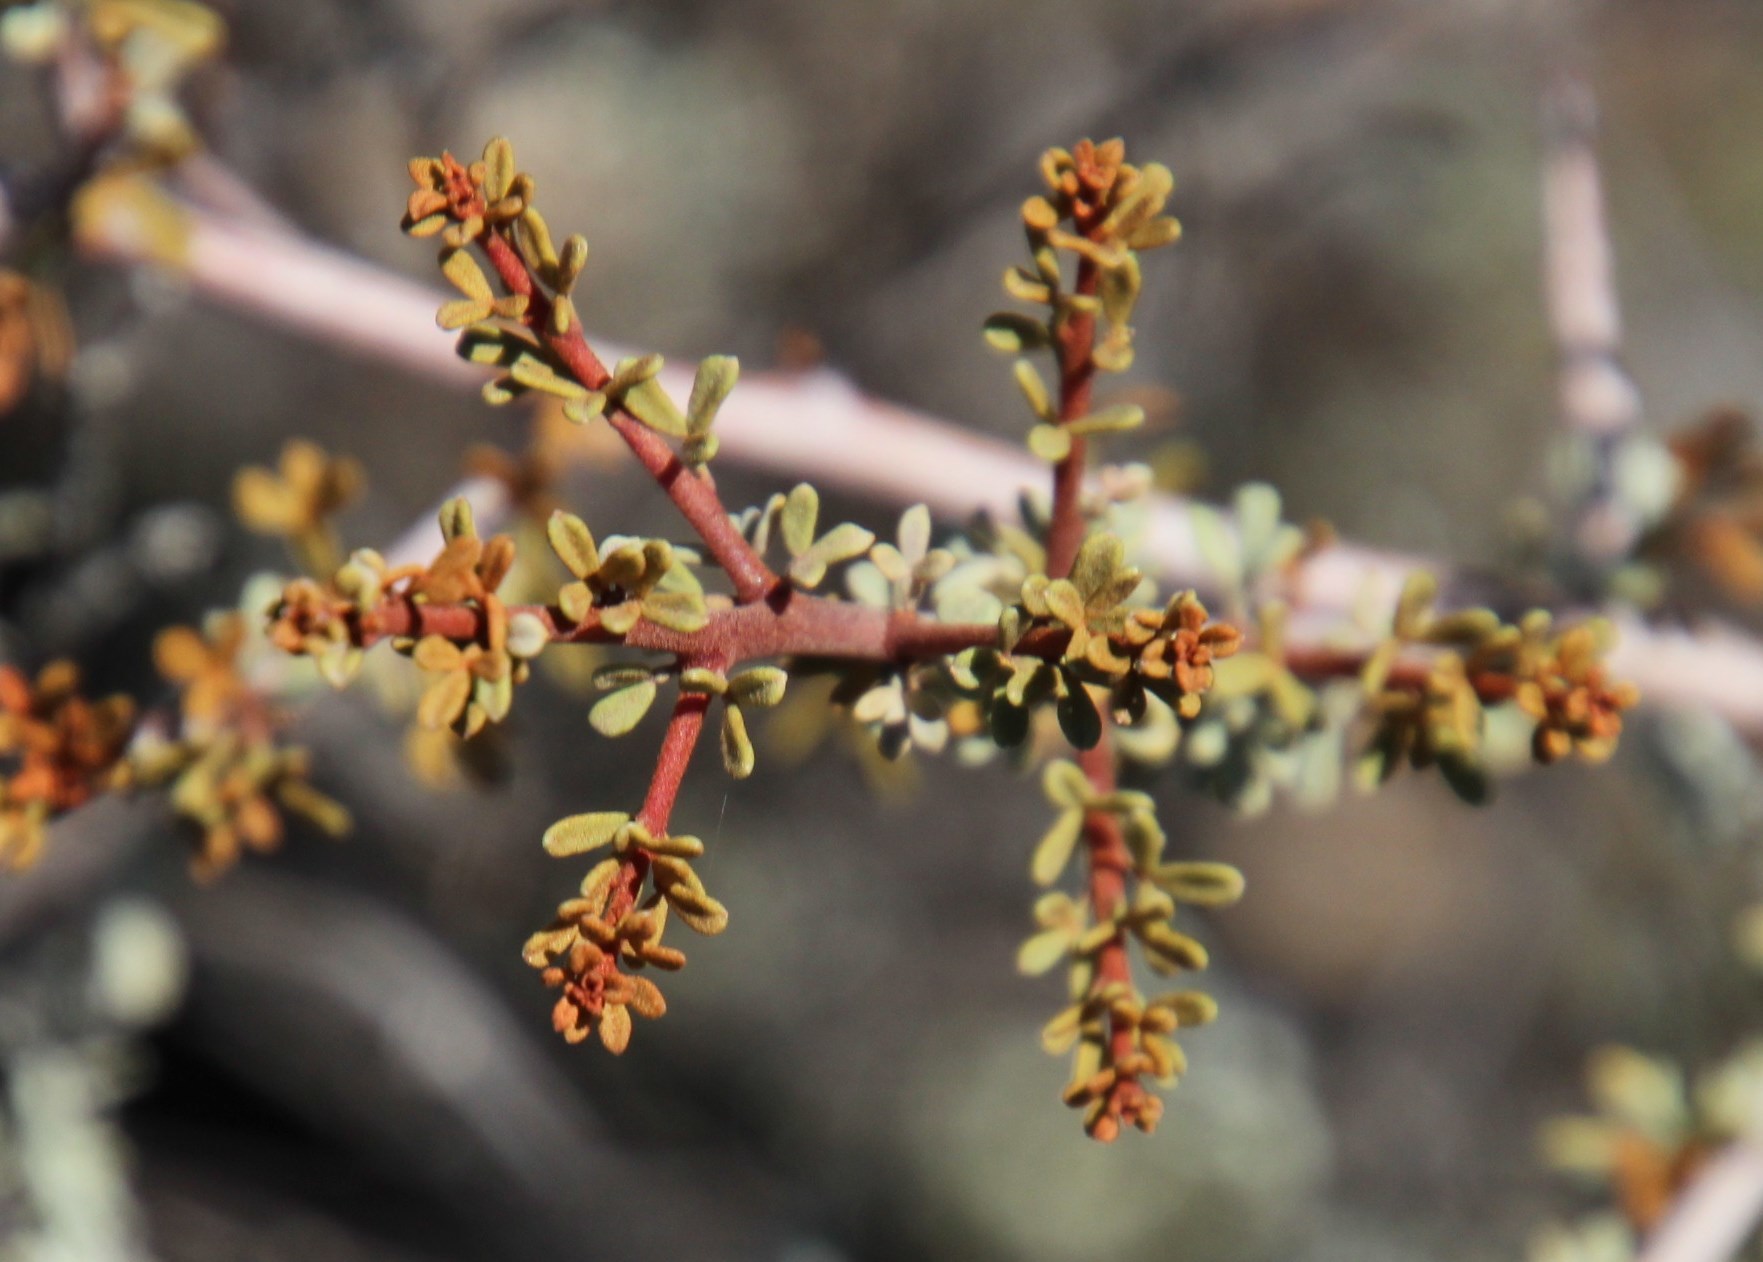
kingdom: Plantae
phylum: Tracheophyta
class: Magnoliopsida
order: Sapindales
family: Anacardiaceae
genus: Searsia
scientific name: Searsia horrida
